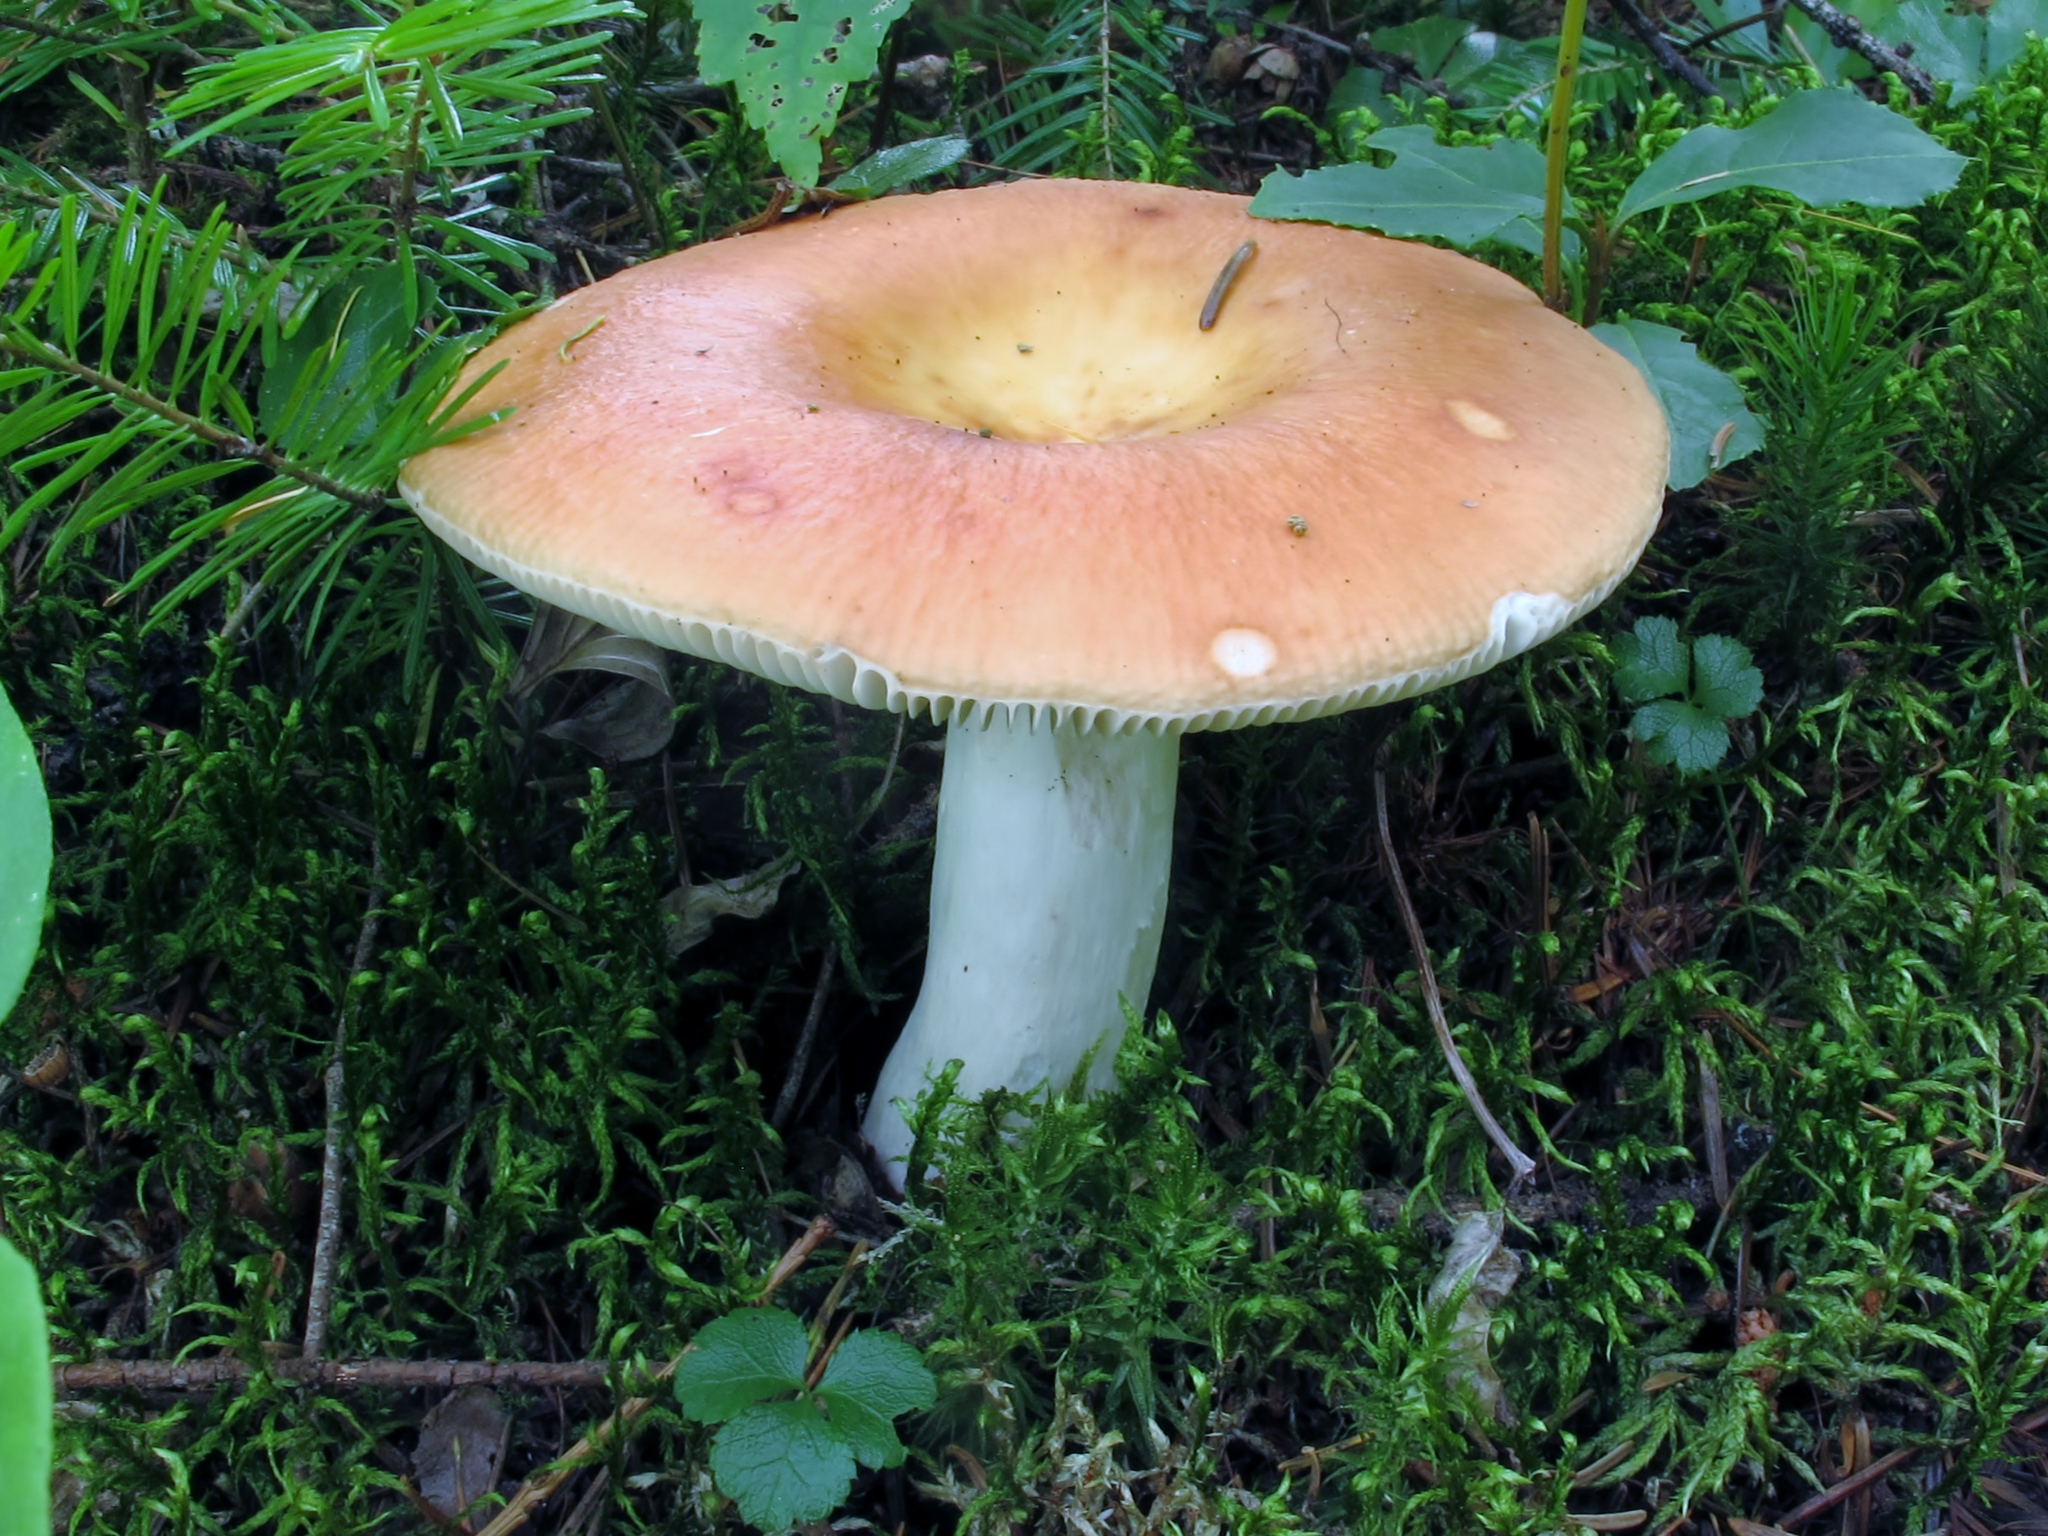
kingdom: Fungi
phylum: Basidiomycota
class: Agaricomycetes
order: Russulales
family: Russulaceae
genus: Russula
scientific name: Russula paludosa
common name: Hintapink
